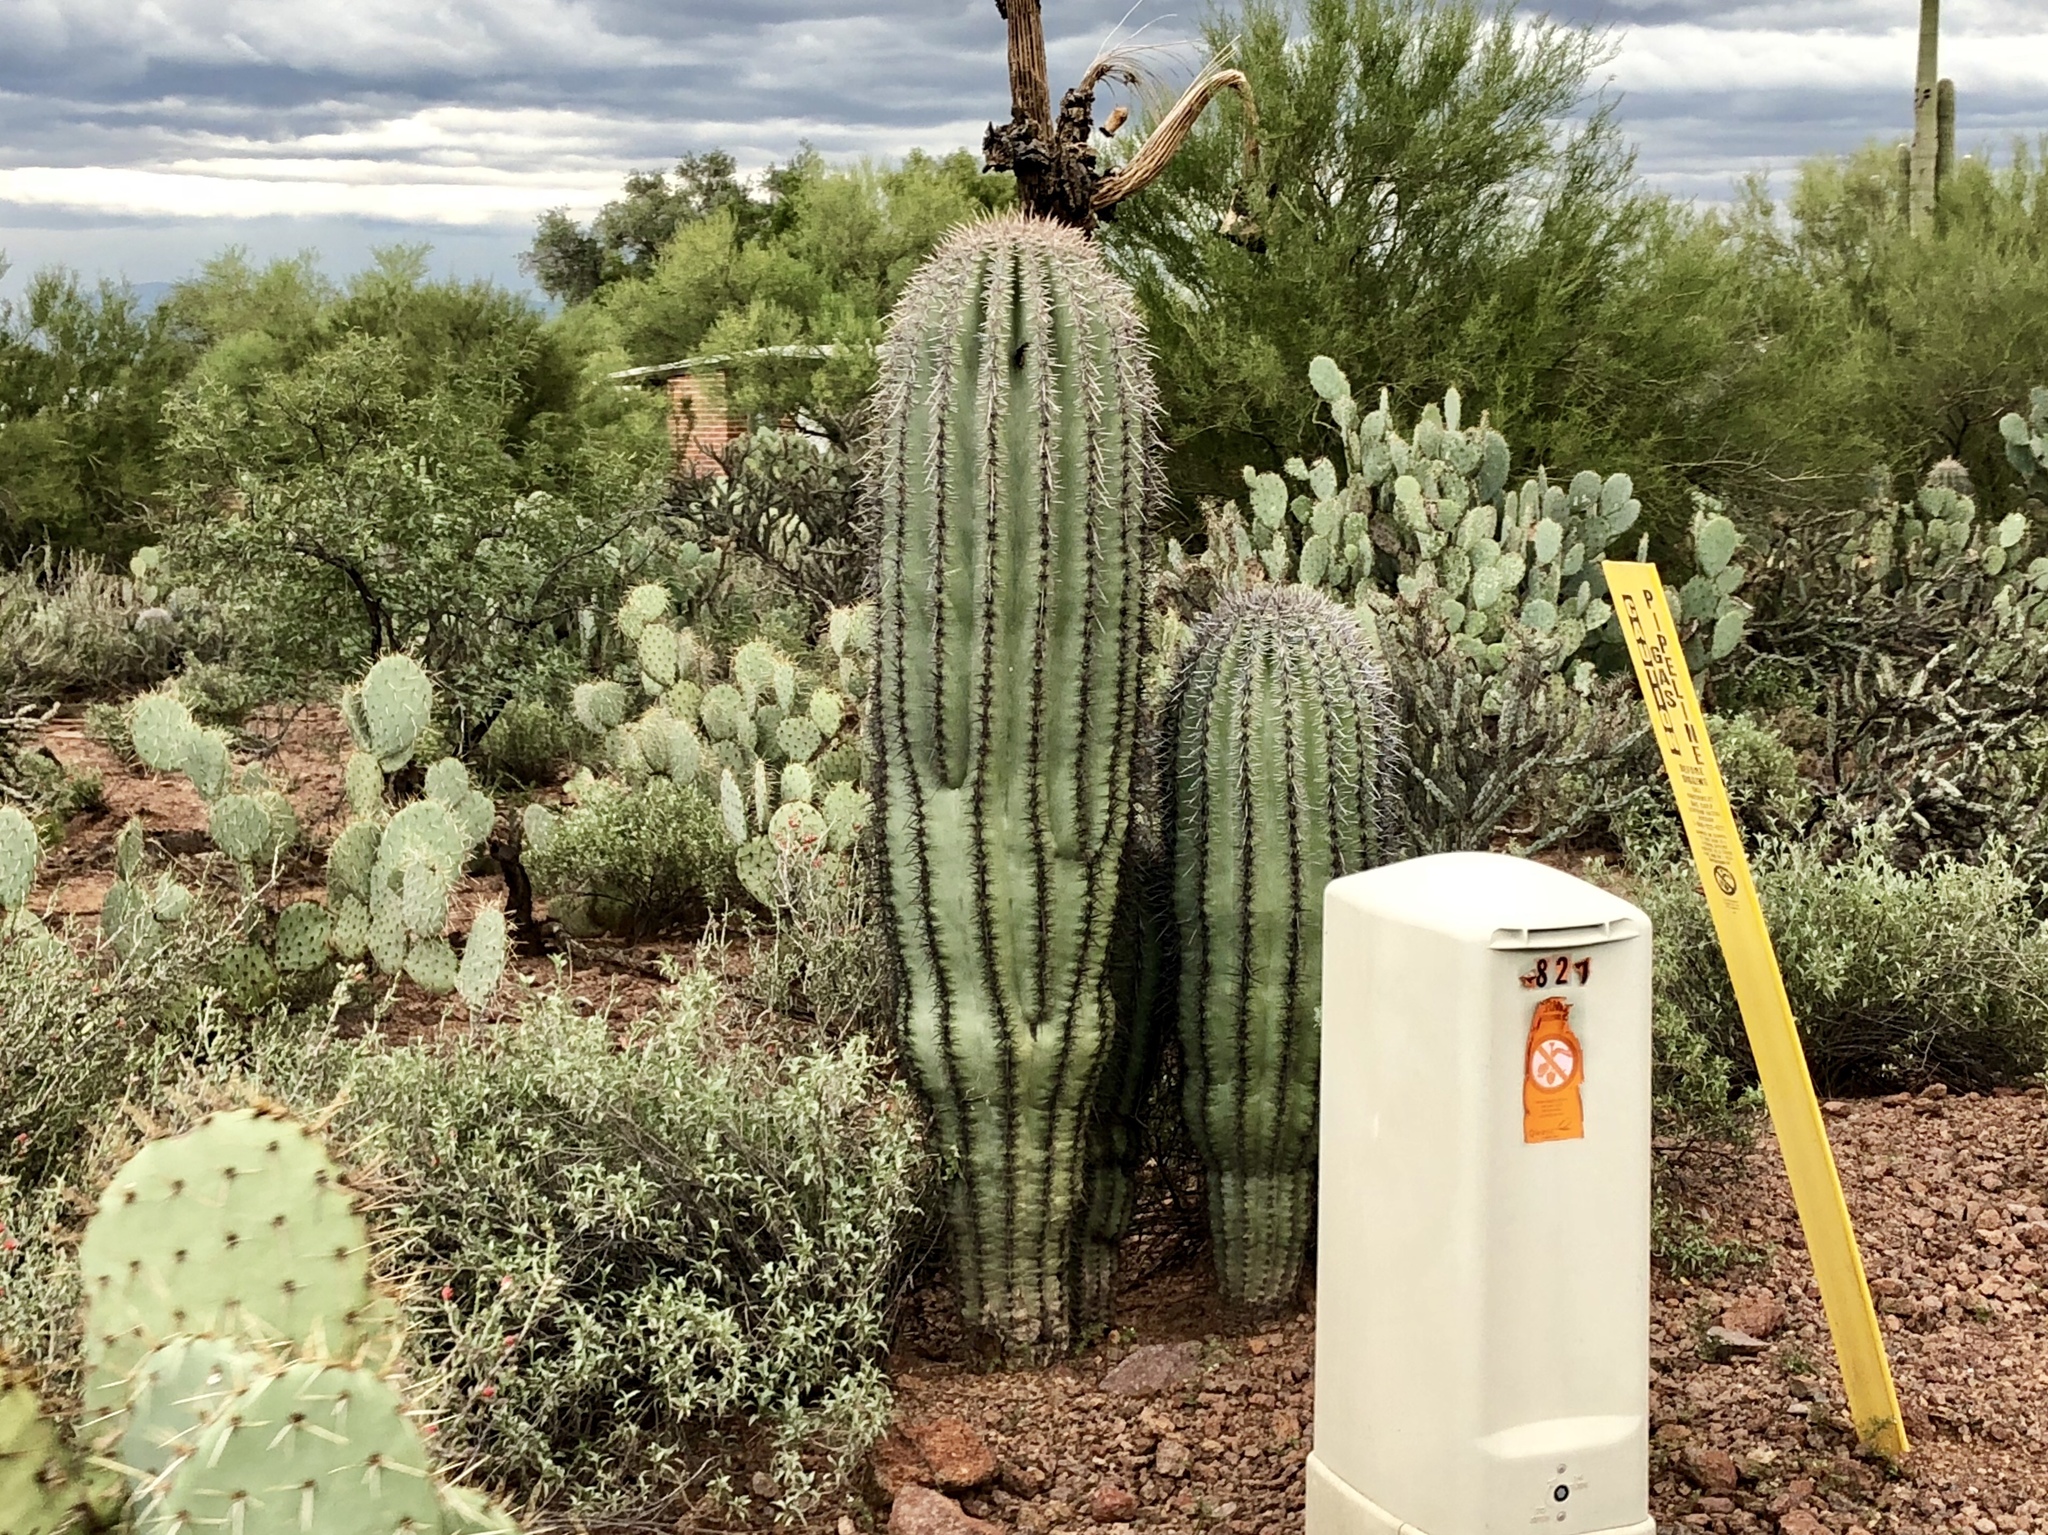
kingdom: Plantae
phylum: Tracheophyta
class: Magnoliopsida
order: Caryophyllales
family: Cactaceae
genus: Carnegiea
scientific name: Carnegiea gigantea
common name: Saguaro
